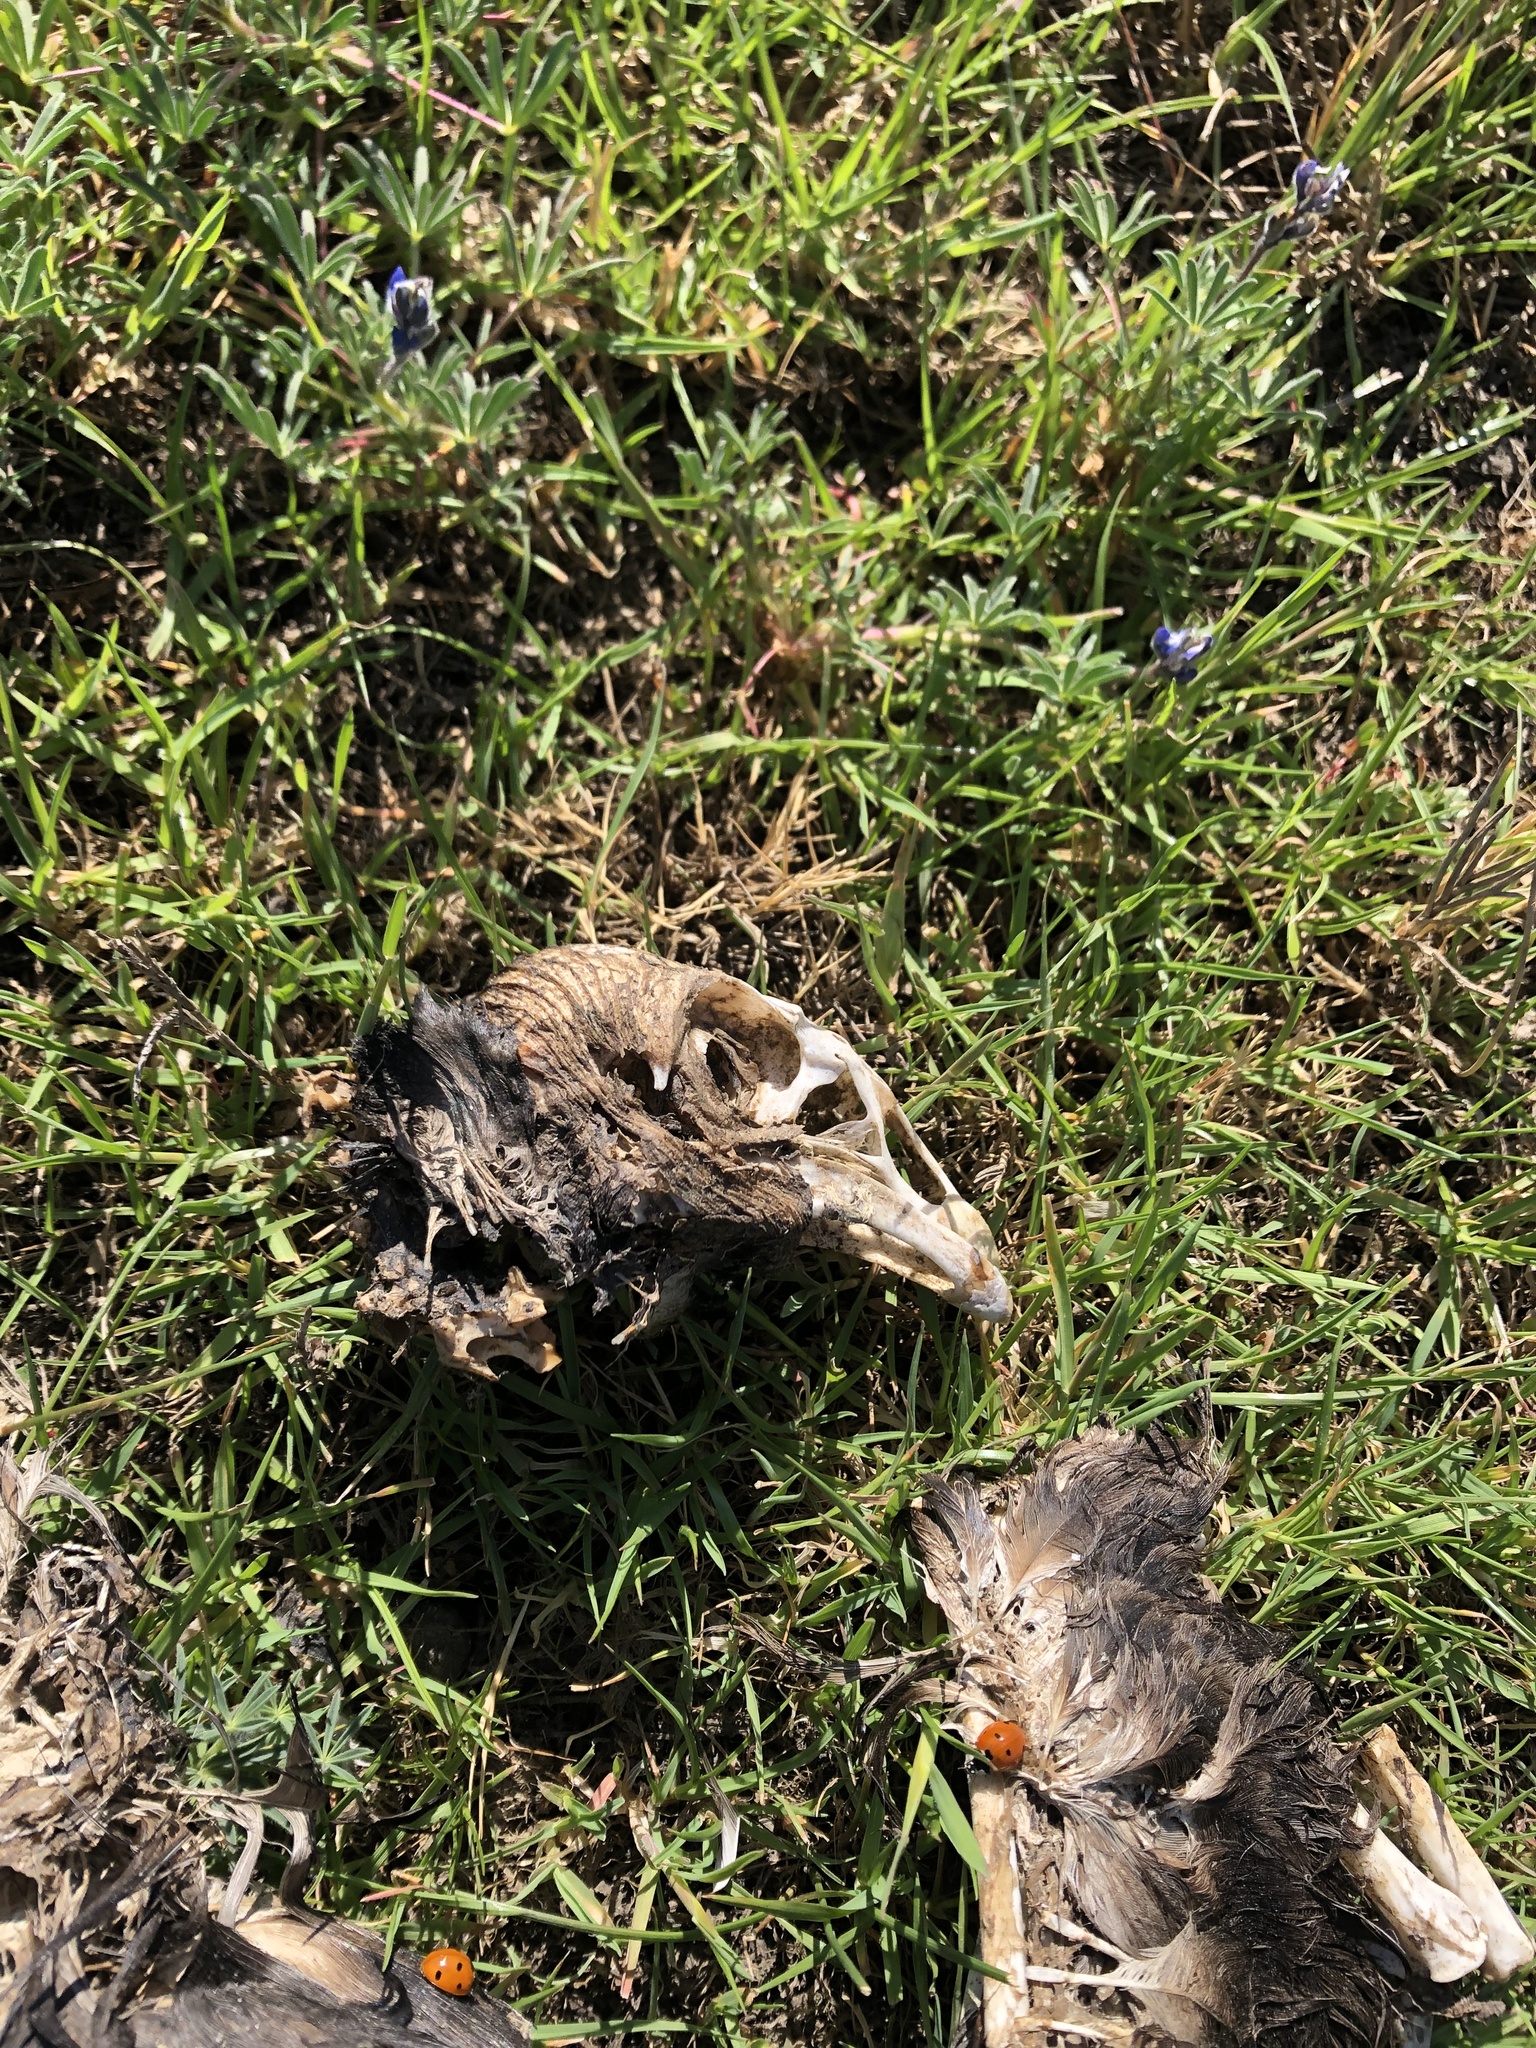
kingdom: Animalia
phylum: Chordata
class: Aves
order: Accipitriformes
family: Cathartidae
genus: Cathartes
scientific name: Cathartes aura
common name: Turkey vulture
